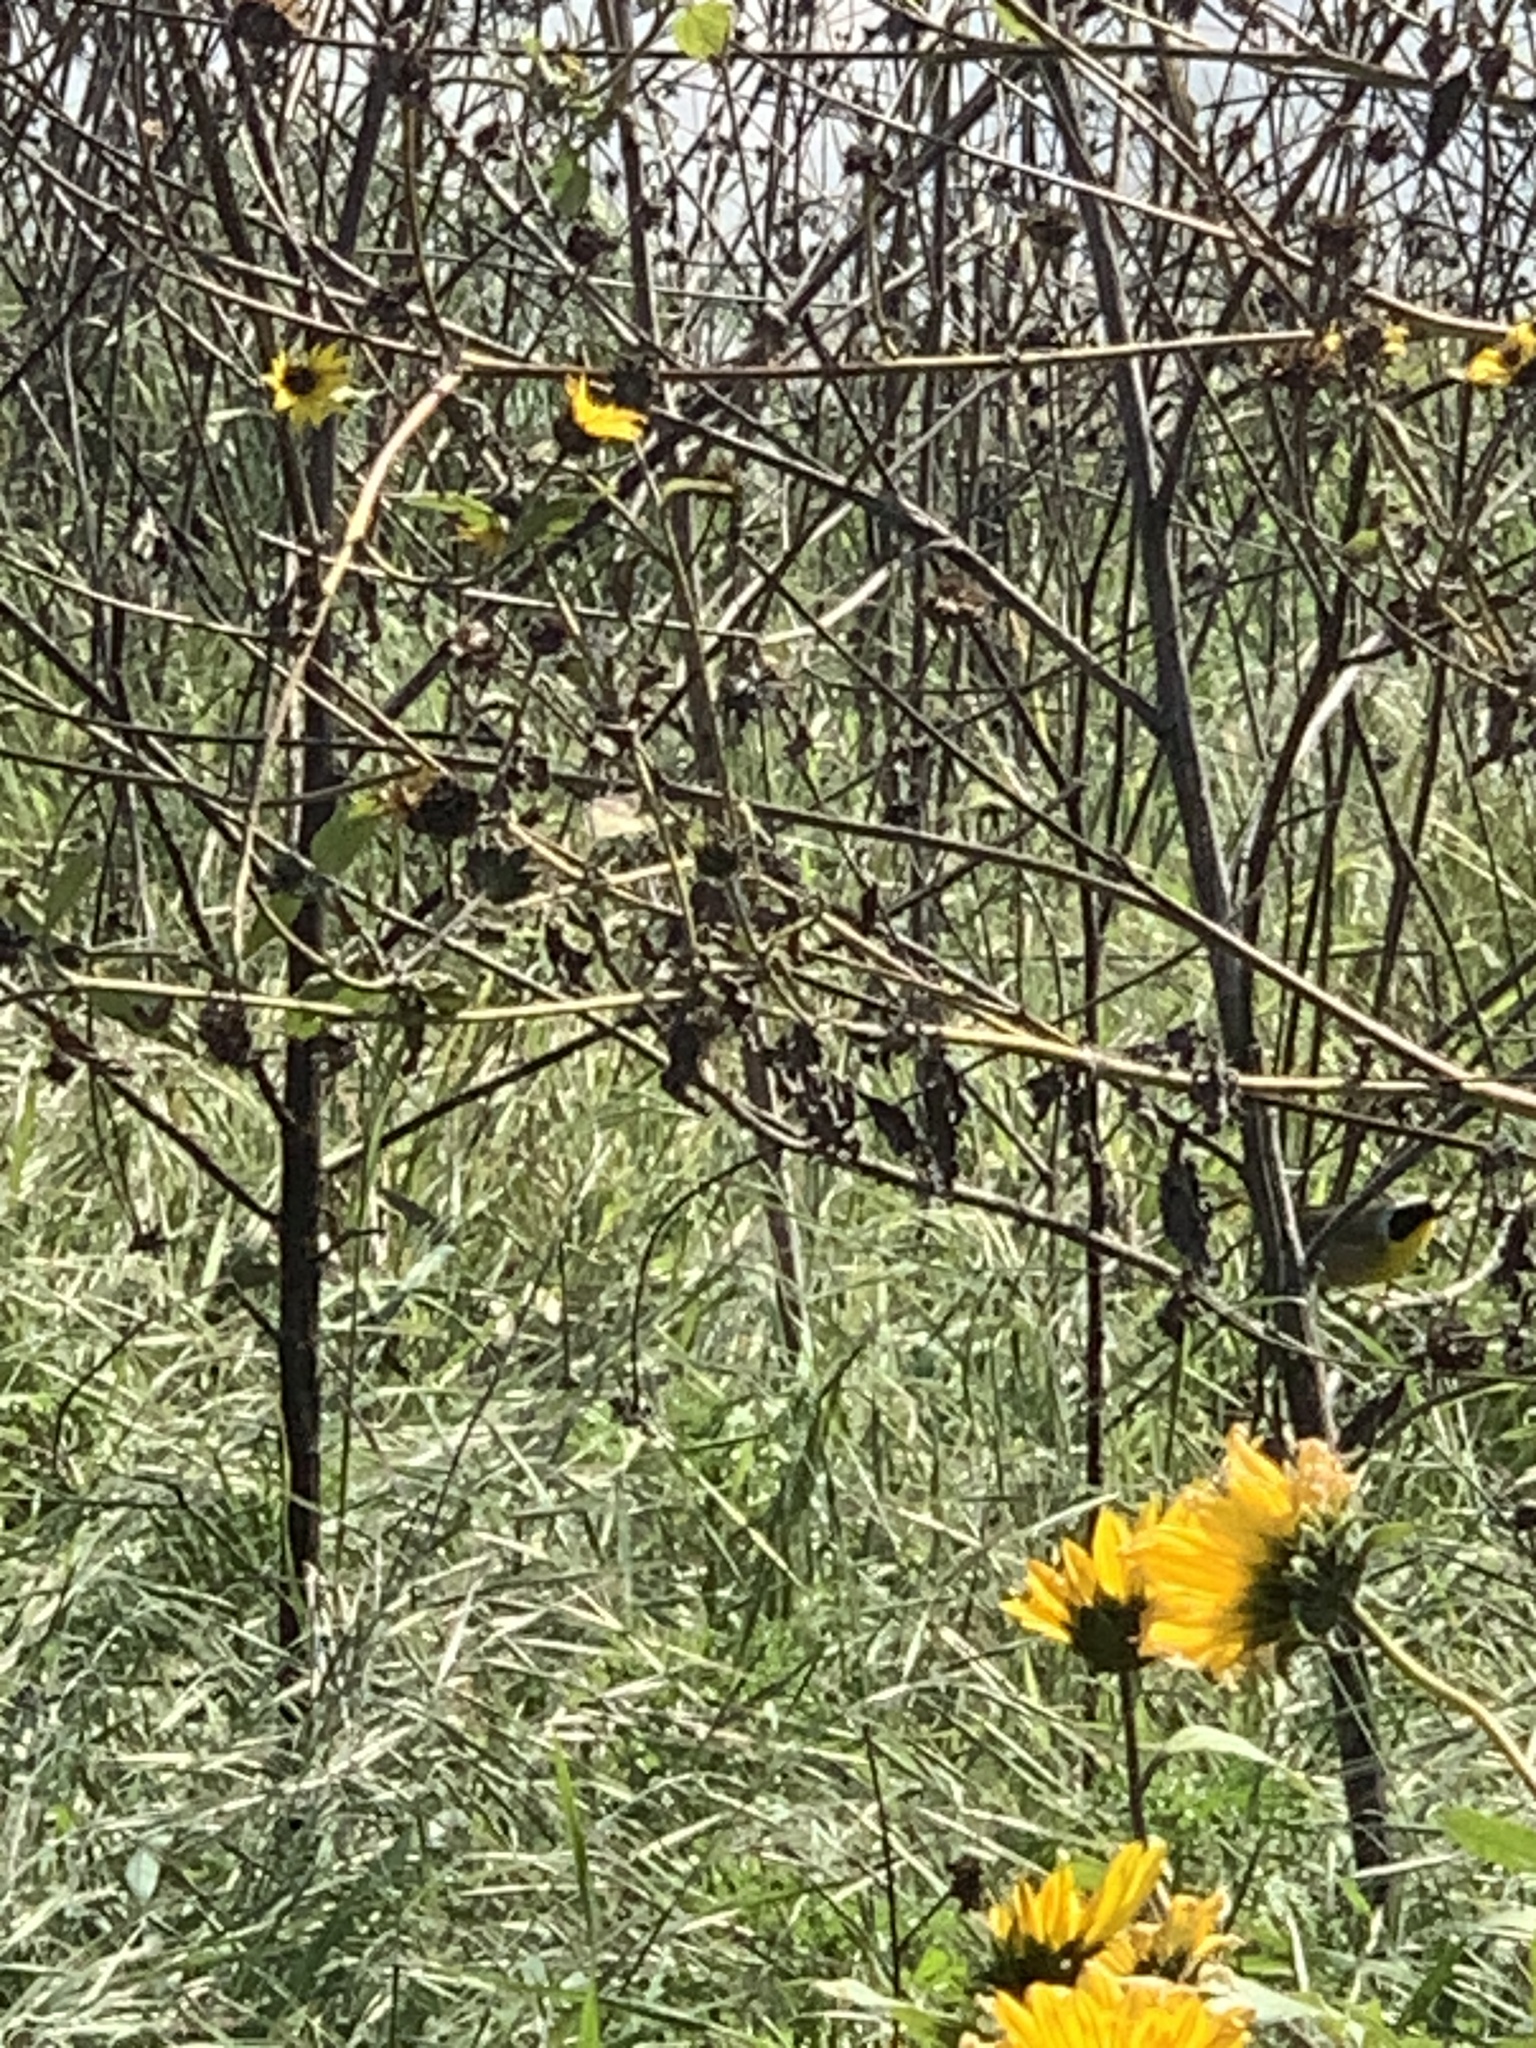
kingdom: Animalia
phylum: Chordata
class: Aves
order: Passeriformes
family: Parulidae
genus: Geothlypis
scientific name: Geothlypis trichas
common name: Common yellowthroat
